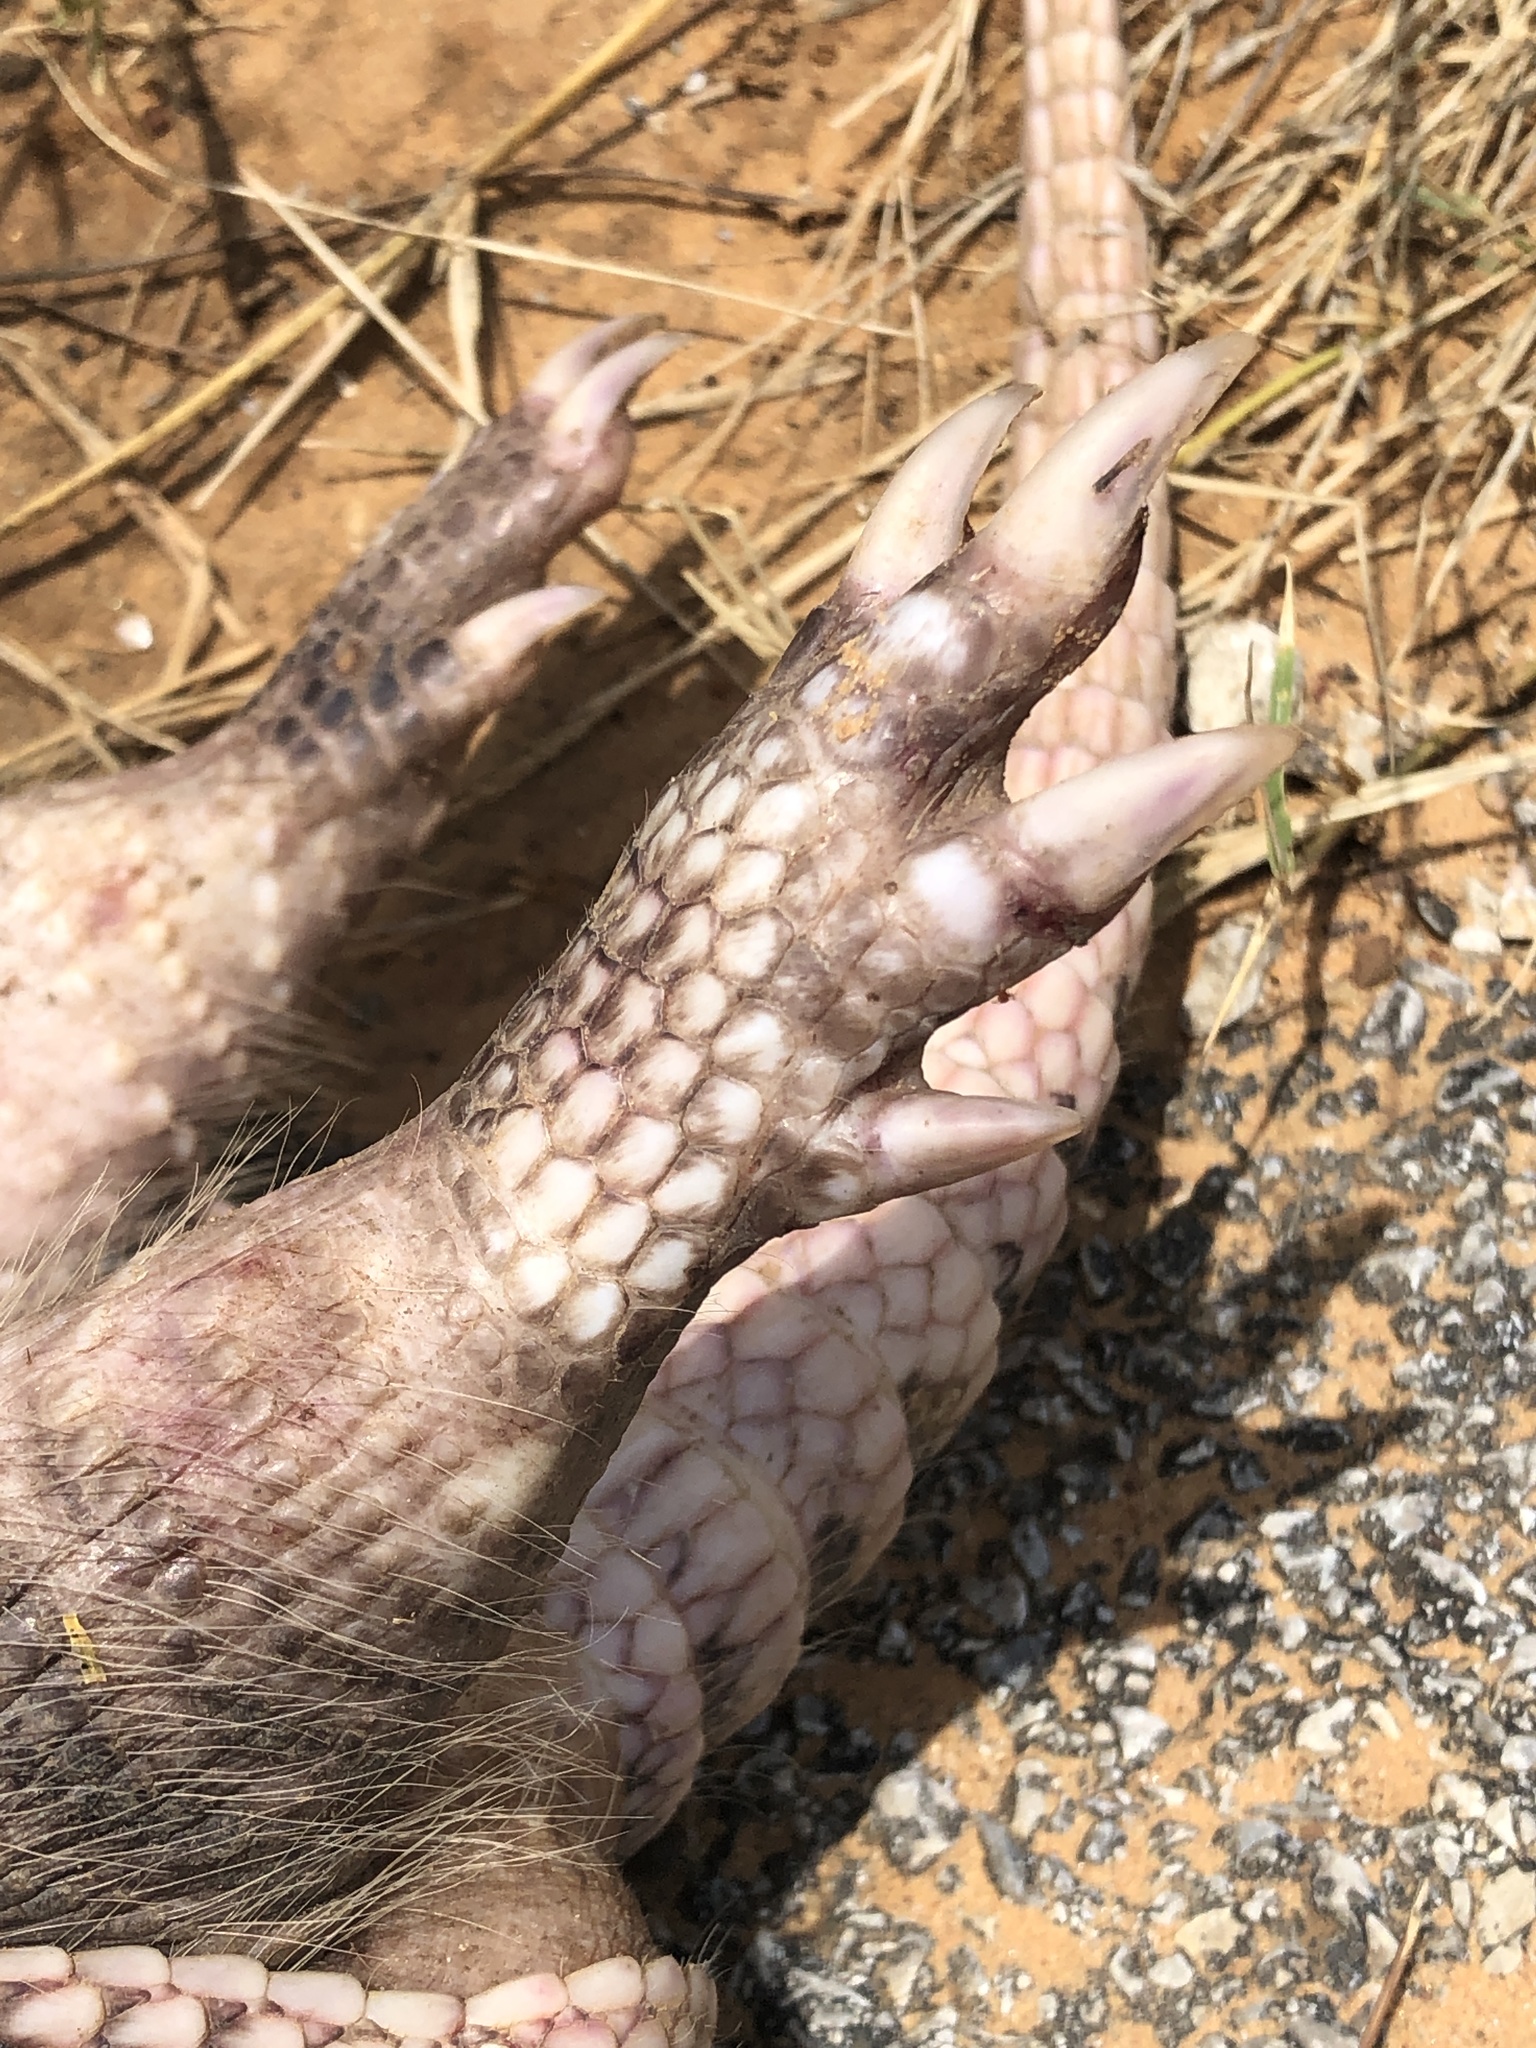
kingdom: Animalia
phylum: Chordata
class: Mammalia
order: Cingulata
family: Dasypodidae
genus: Dasypus
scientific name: Dasypus novemcinctus
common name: Nine-banded armadillo
